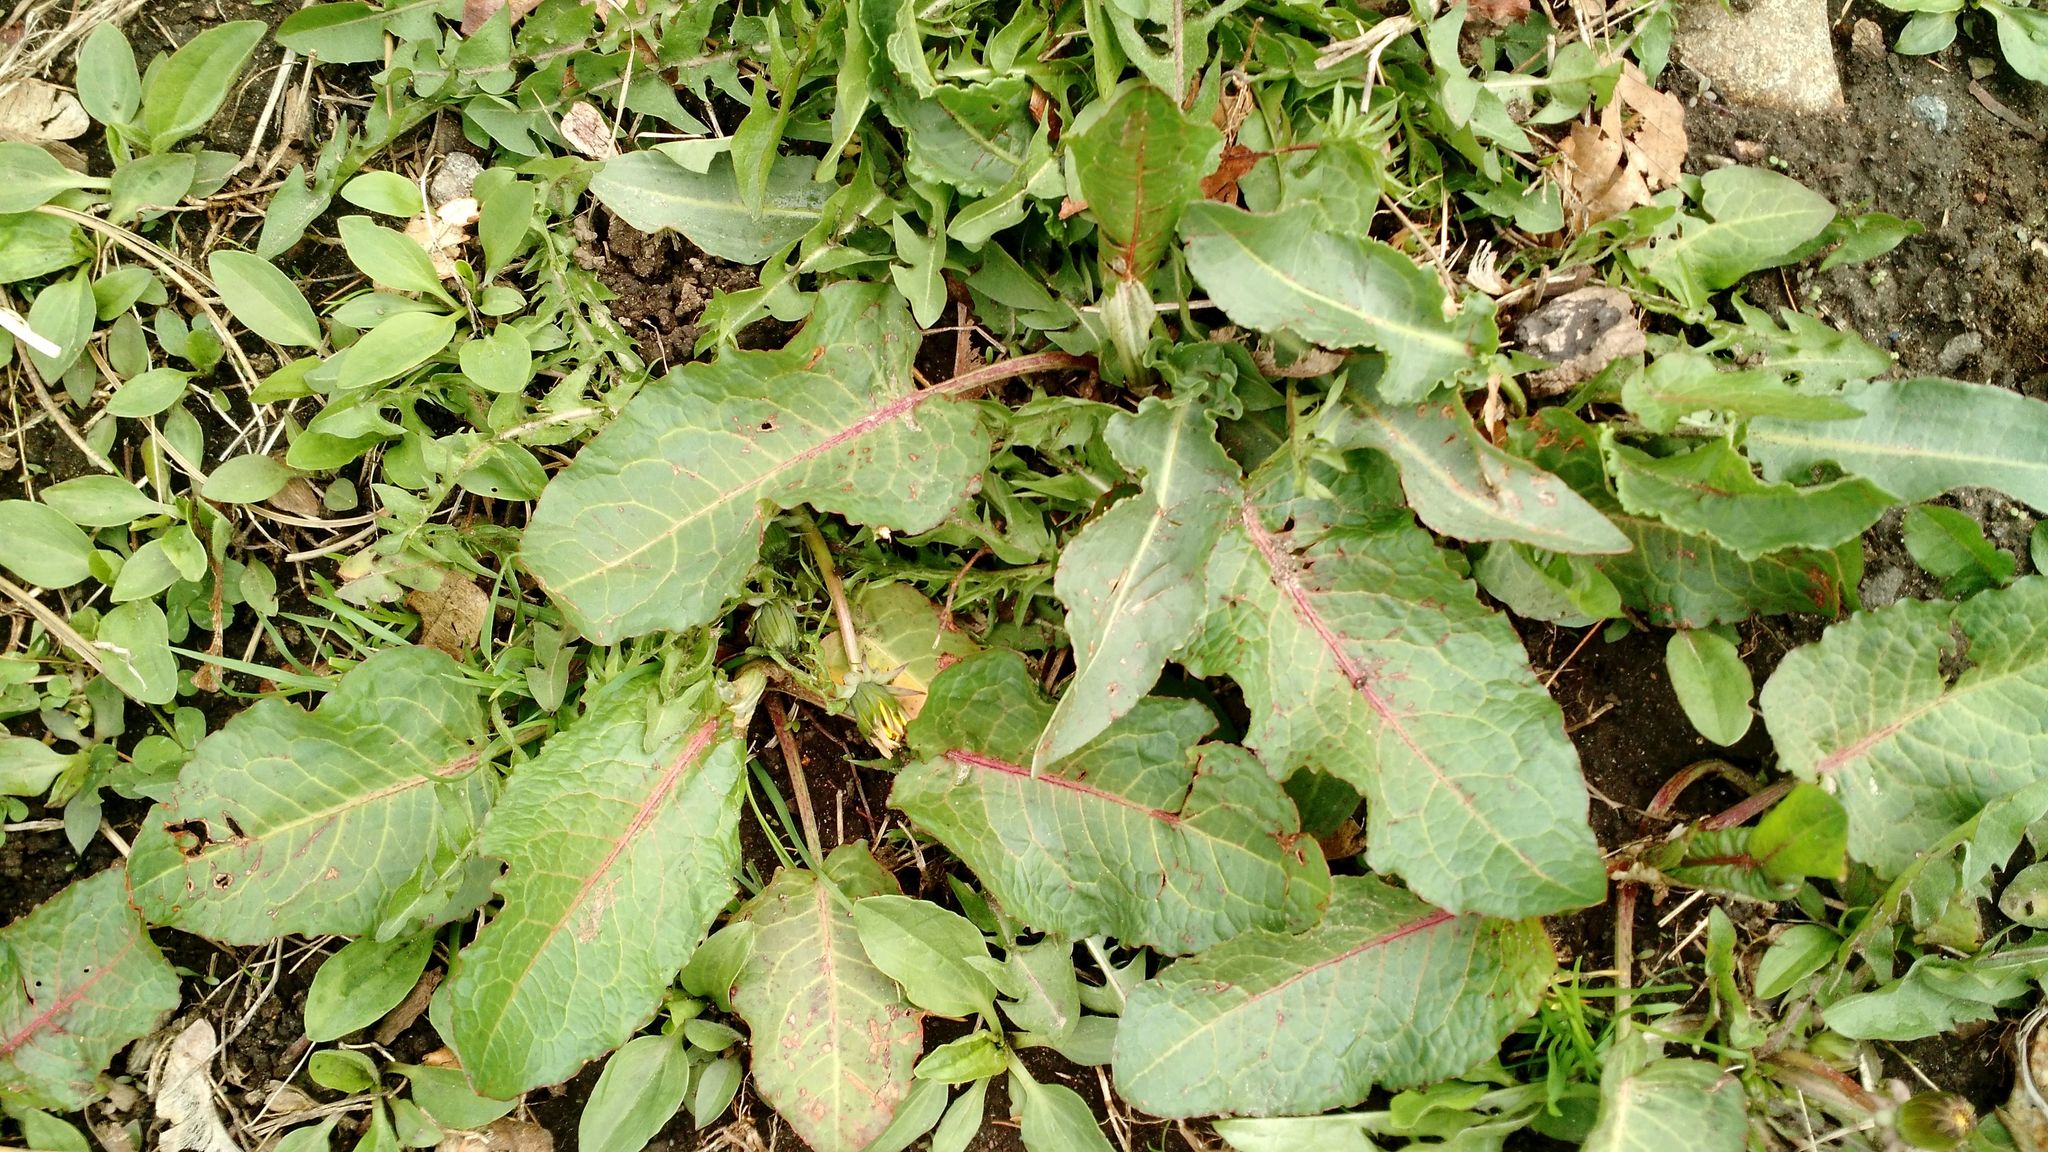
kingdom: Plantae
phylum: Tracheophyta
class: Magnoliopsida
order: Caryophyllales
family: Polygonaceae
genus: Rumex
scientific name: Rumex obtusifolius
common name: Bitter dock
